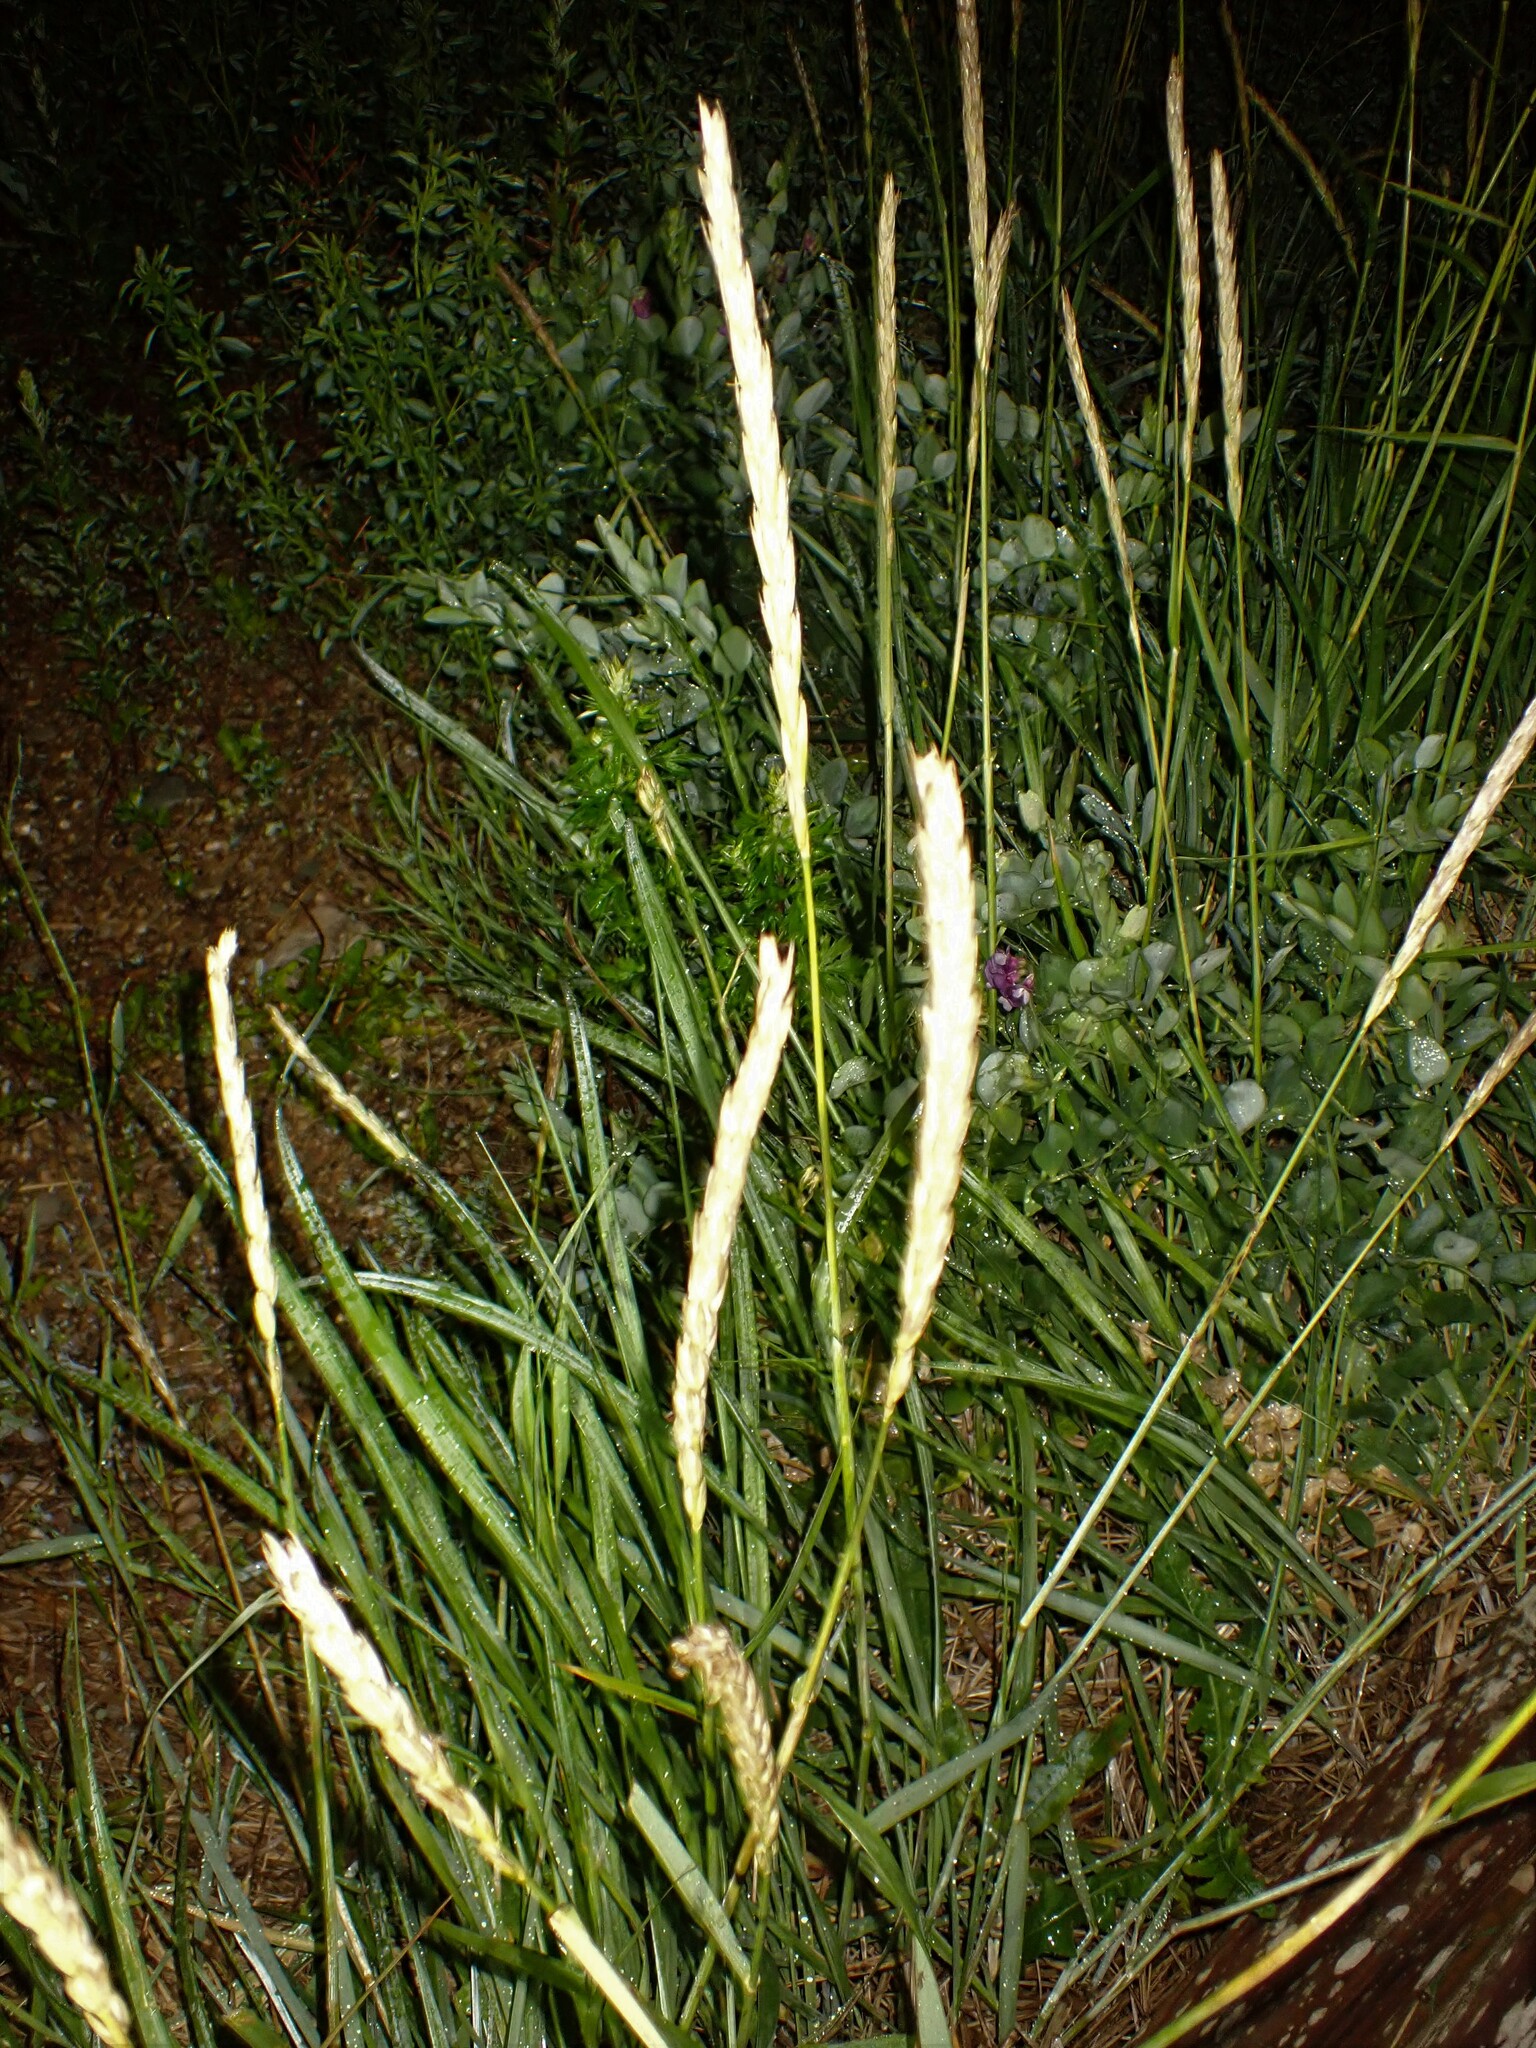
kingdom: Plantae
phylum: Tracheophyta
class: Liliopsida
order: Poales
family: Poaceae
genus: Leymus
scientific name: Leymus mollis
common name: American dune grass
